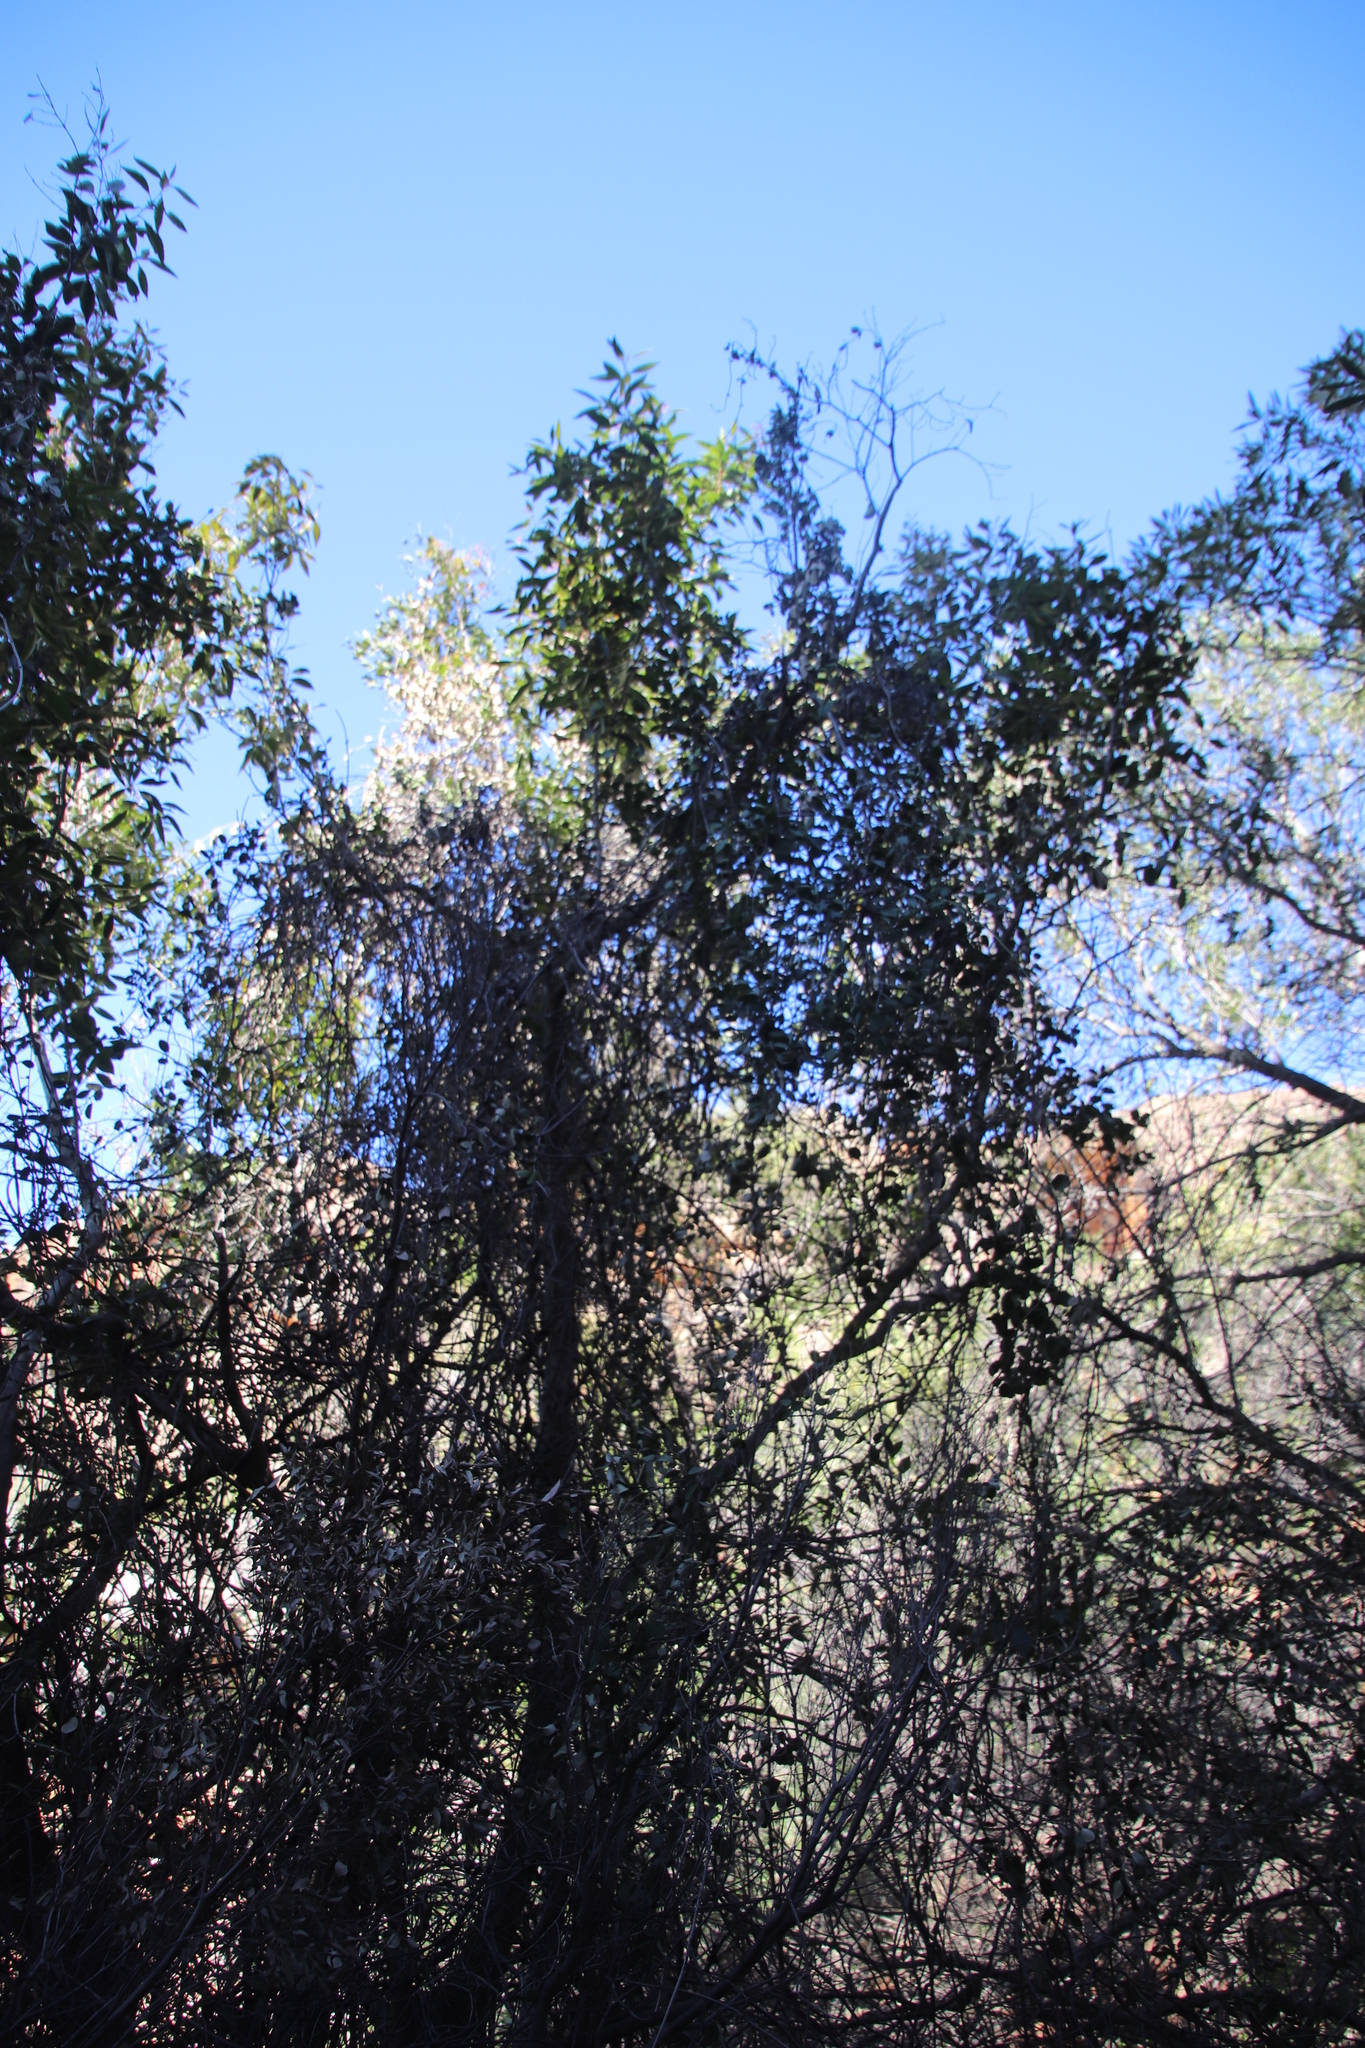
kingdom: Plantae
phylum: Tracheophyta
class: Magnoliopsida
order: Celastrales
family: Celastraceae
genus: Cassine
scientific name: Cassine peragua
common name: Cape saffron
